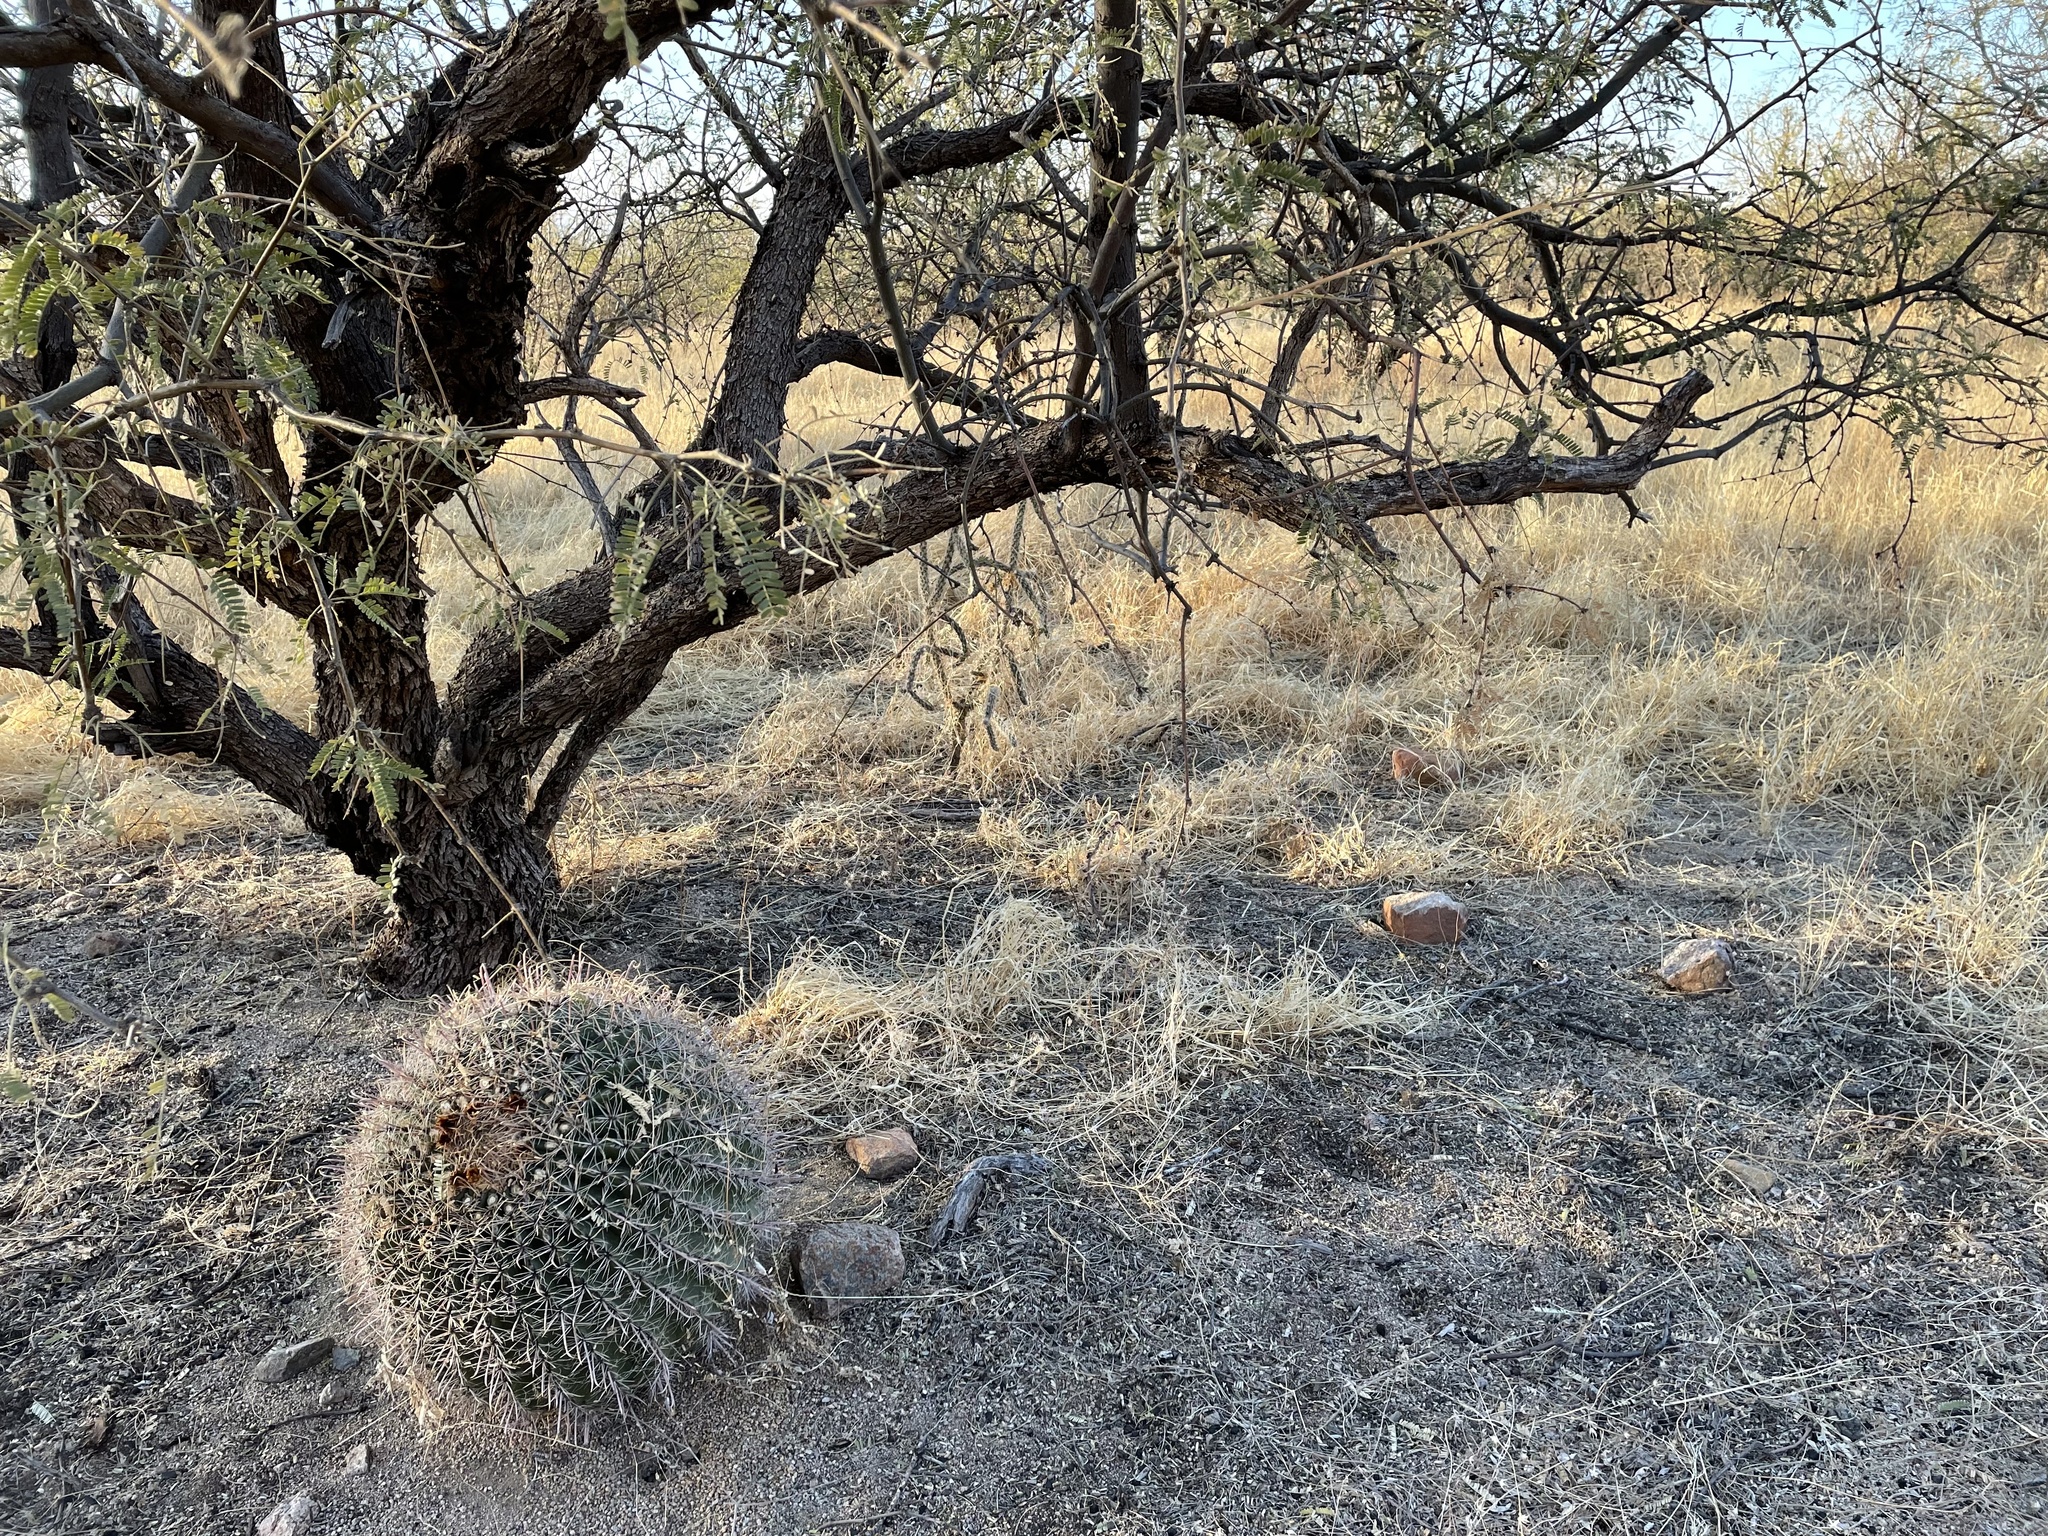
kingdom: Plantae
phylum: Tracheophyta
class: Magnoliopsida
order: Caryophyllales
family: Cactaceae
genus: Ferocactus
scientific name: Ferocactus wislizeni
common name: Candy barrel cactus
